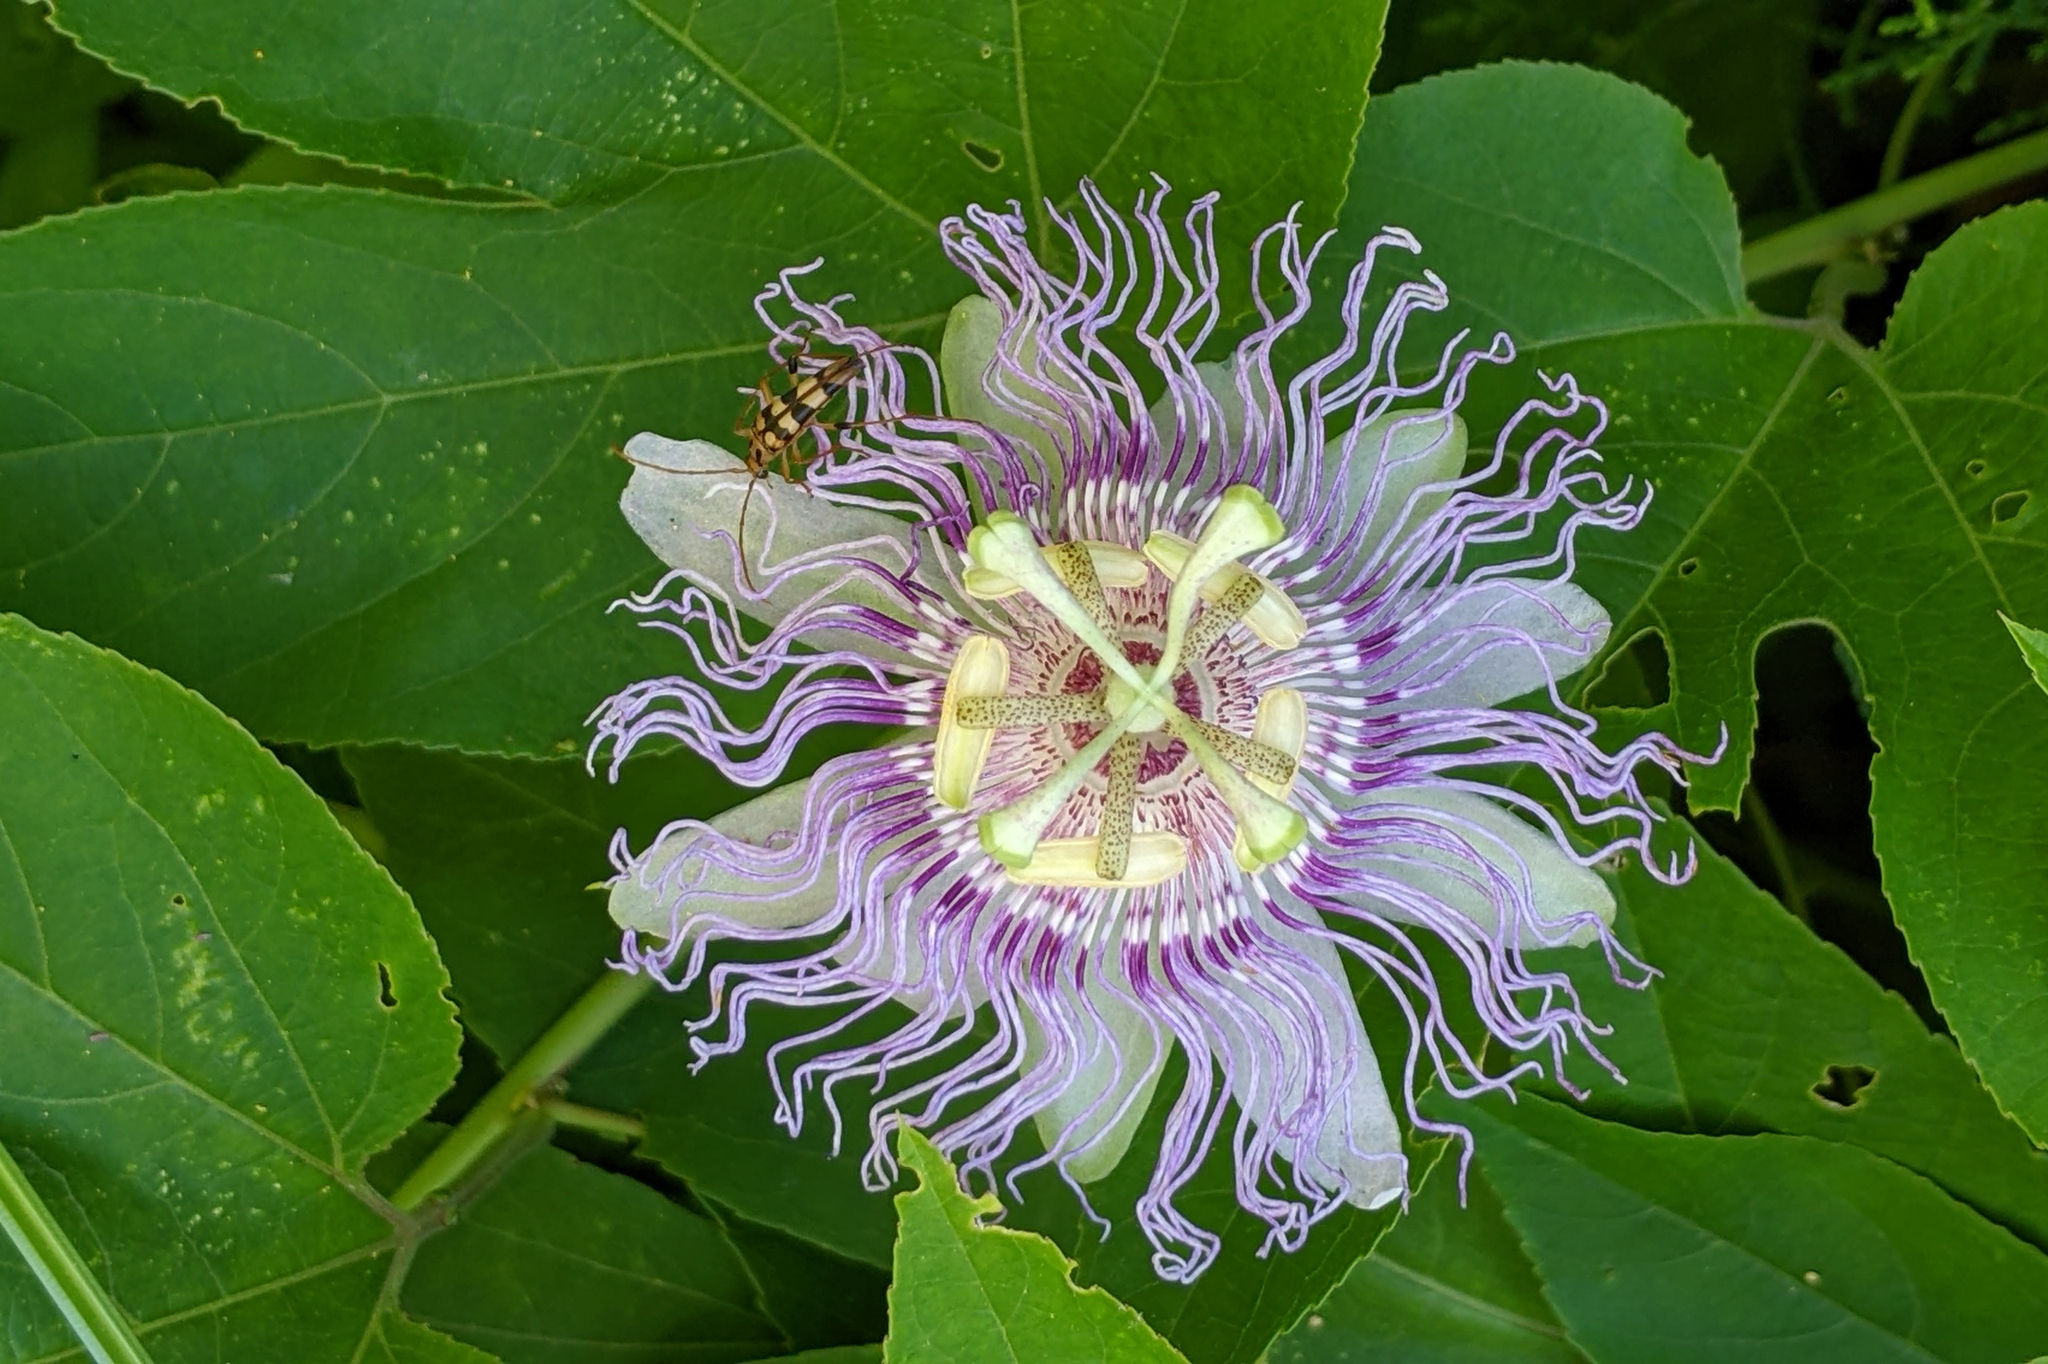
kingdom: Plantae
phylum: Tracheophyta
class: Magnoliopsida
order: Malpighiales
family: Passifloraceae
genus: Passiflora
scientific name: Passiflora incarnata
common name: Apricot-vine
